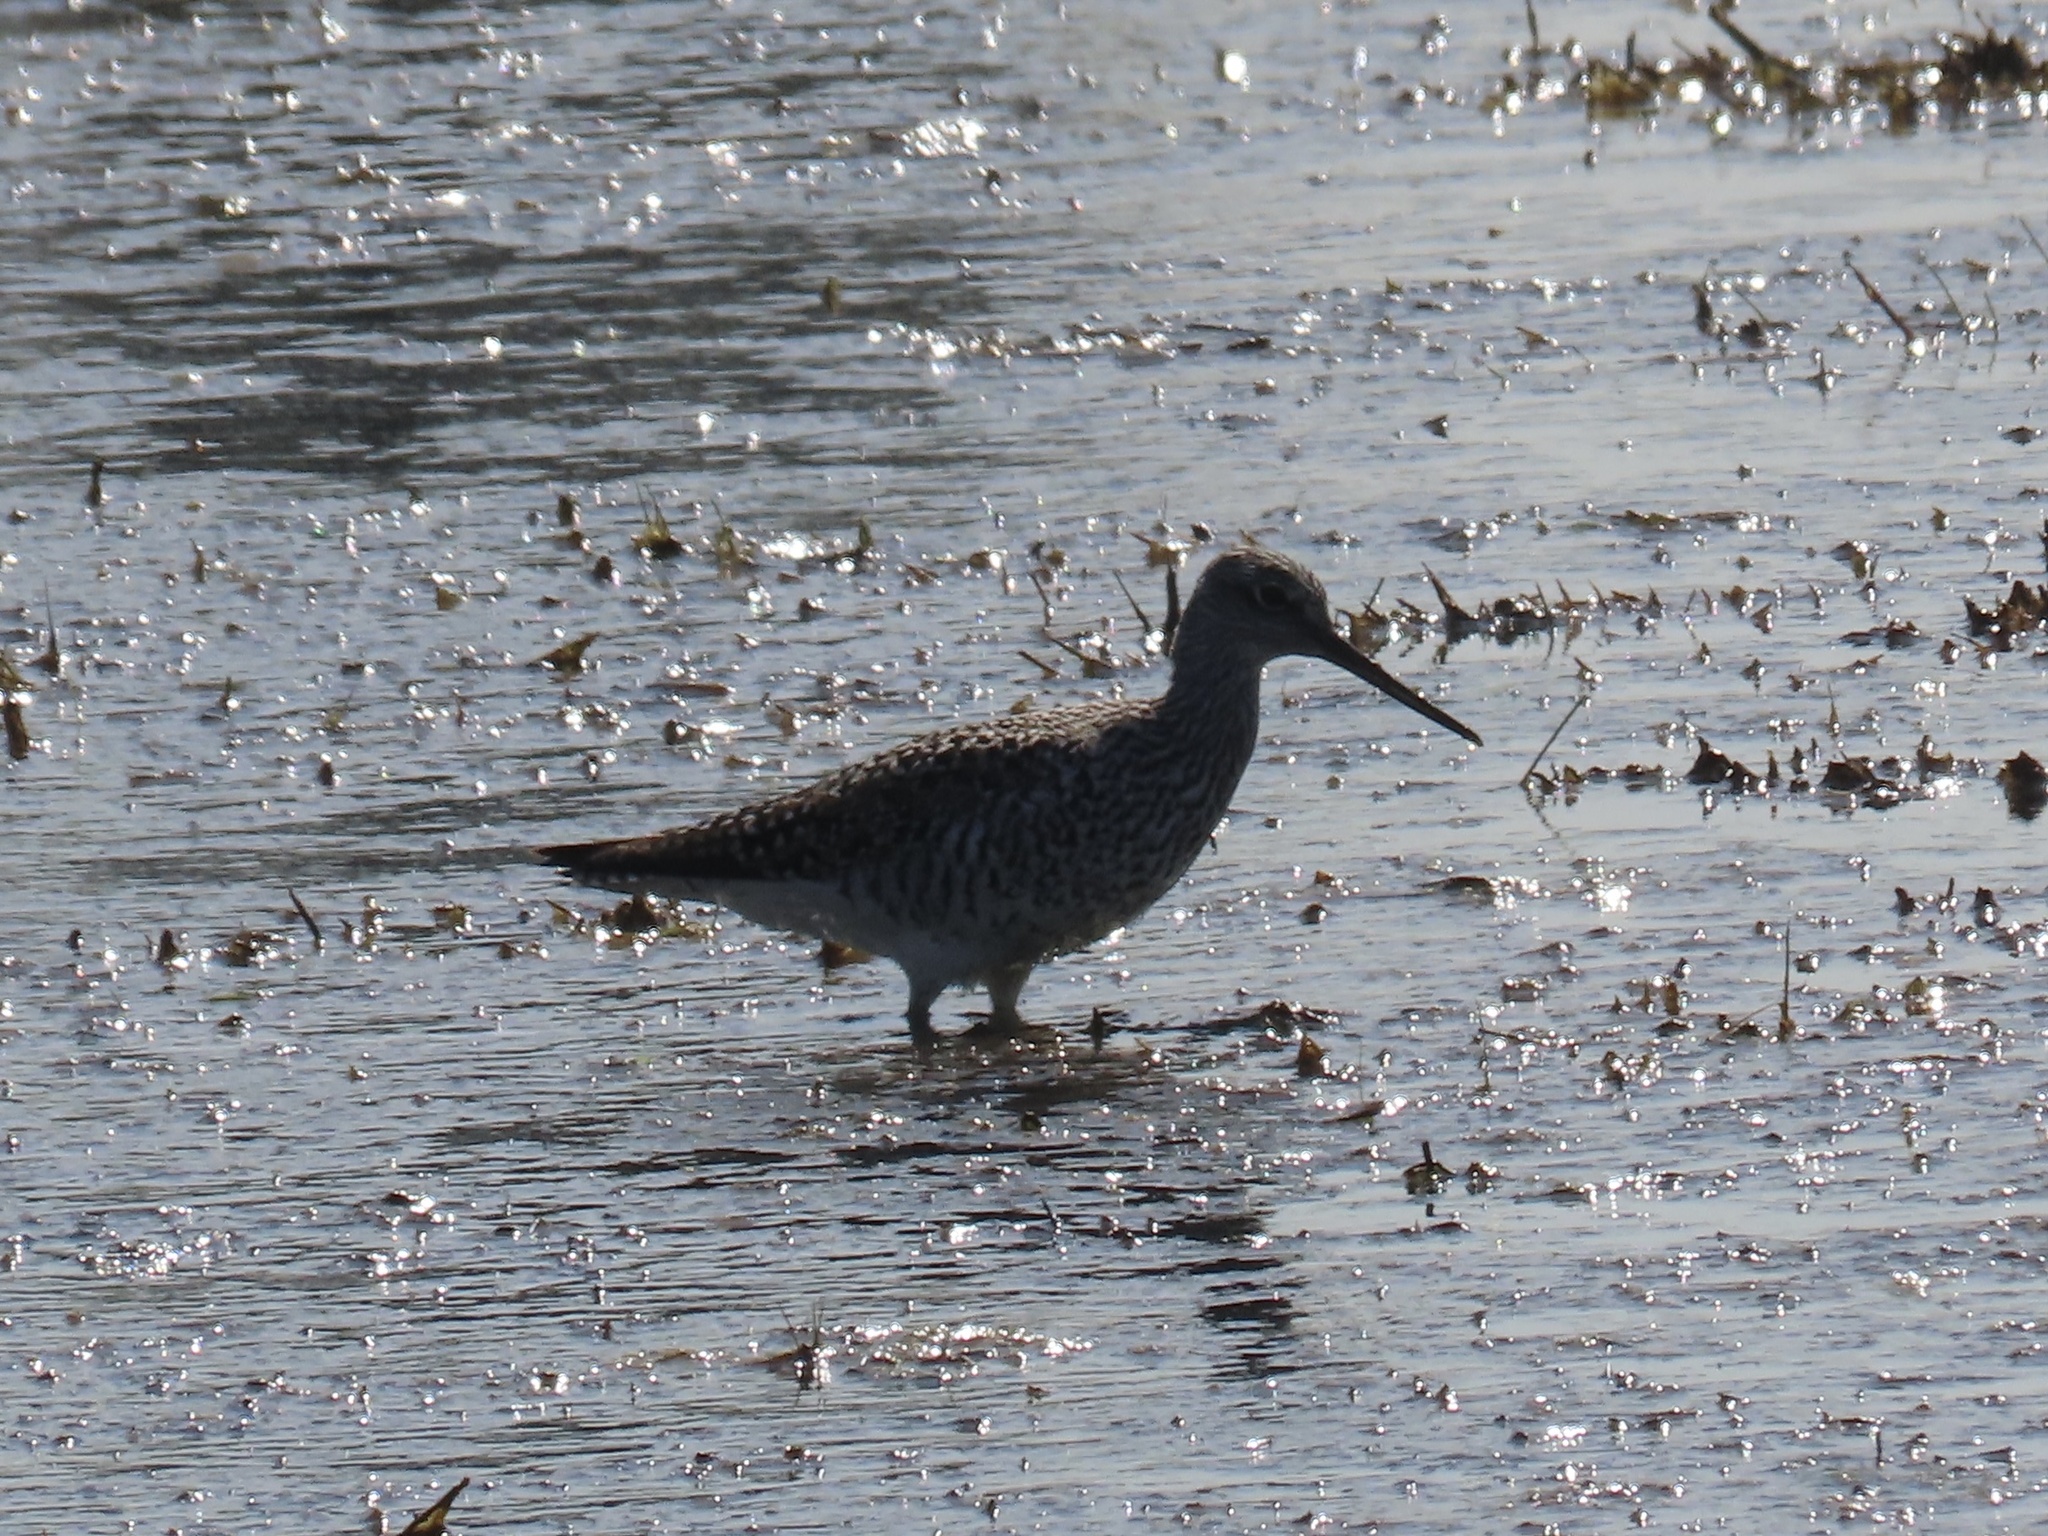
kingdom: Animalia
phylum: Chordata
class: Aves
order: Charadriiformes
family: Scolopacidae
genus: Tringa
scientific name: Tringa melanoleuca
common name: Greater yellowlegs
